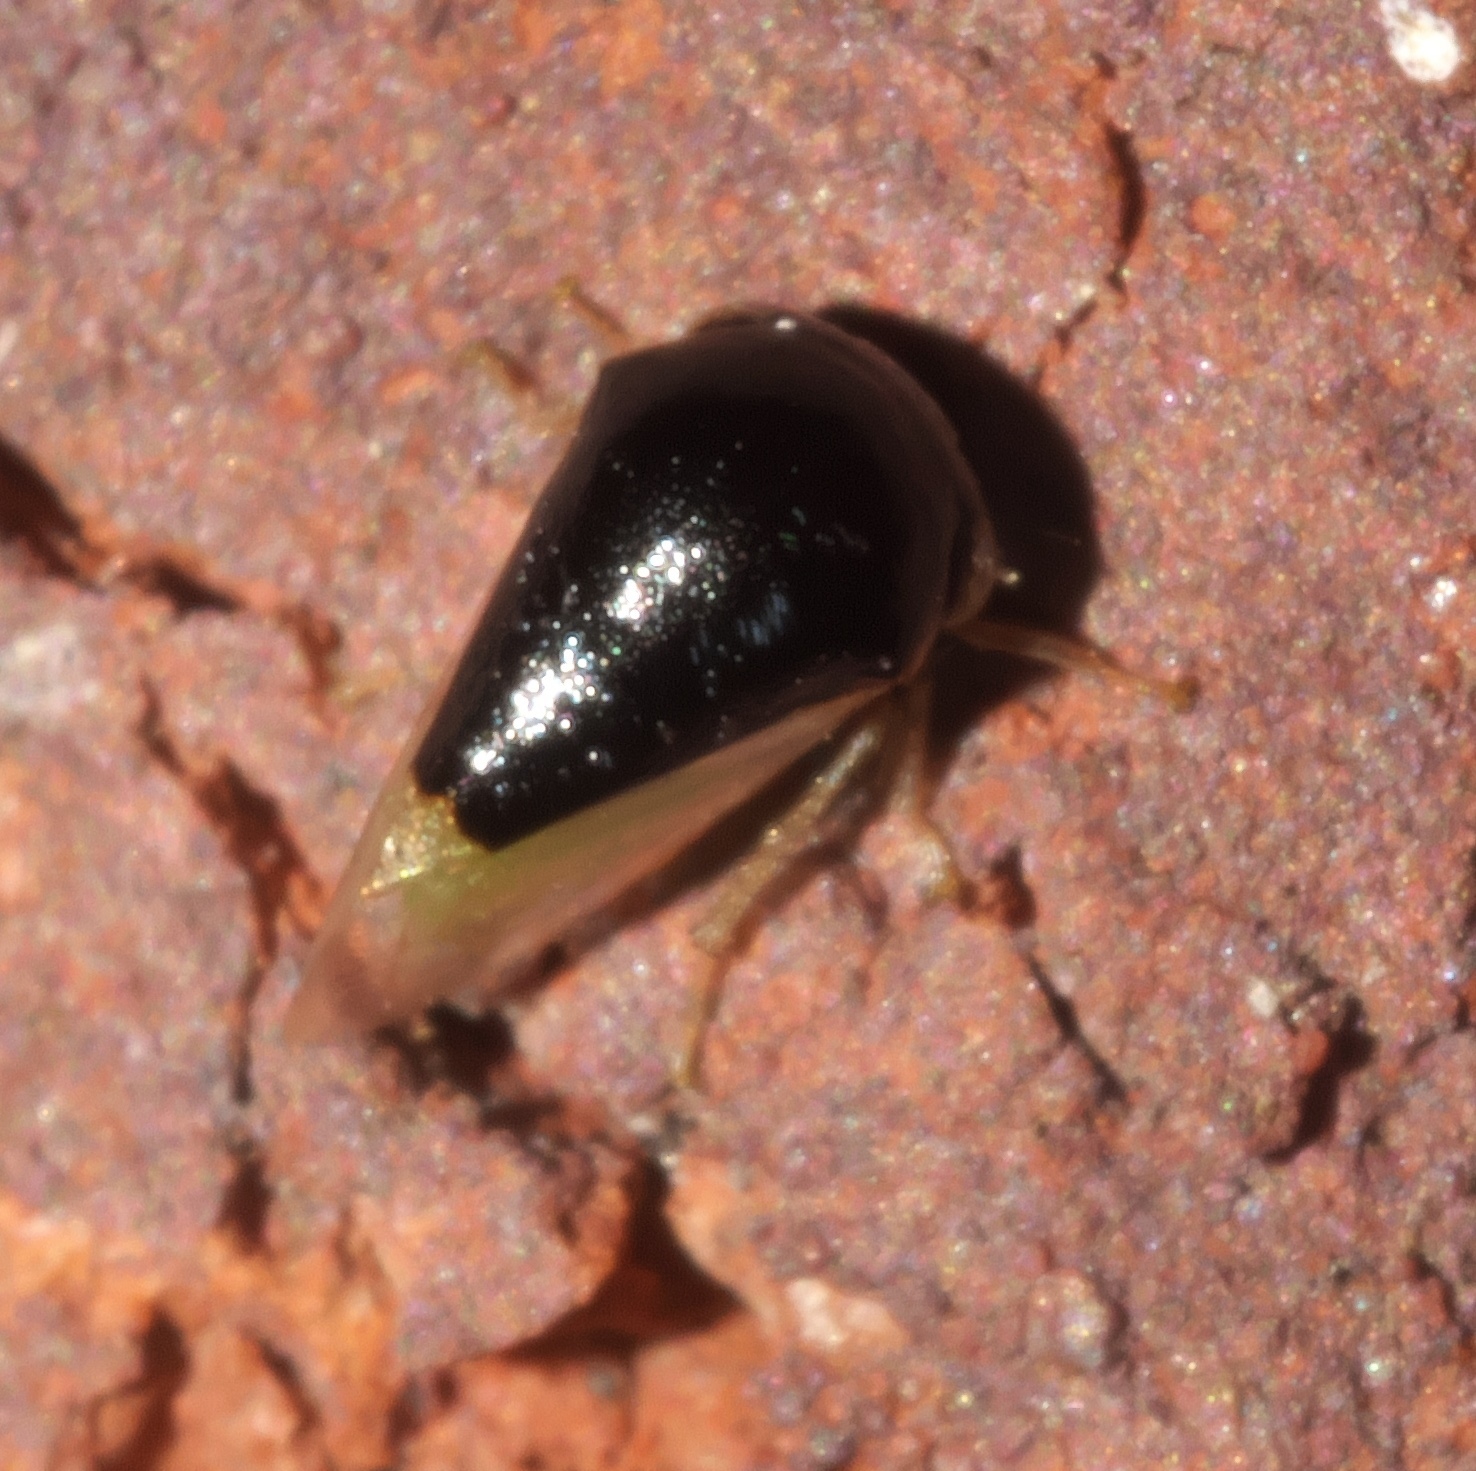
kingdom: Animalia
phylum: Arthropoda
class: Insecta
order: Hemiptera
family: Membracidae
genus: Micrutalis
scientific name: Micrutalis calva
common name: Honeylocust treehopper
